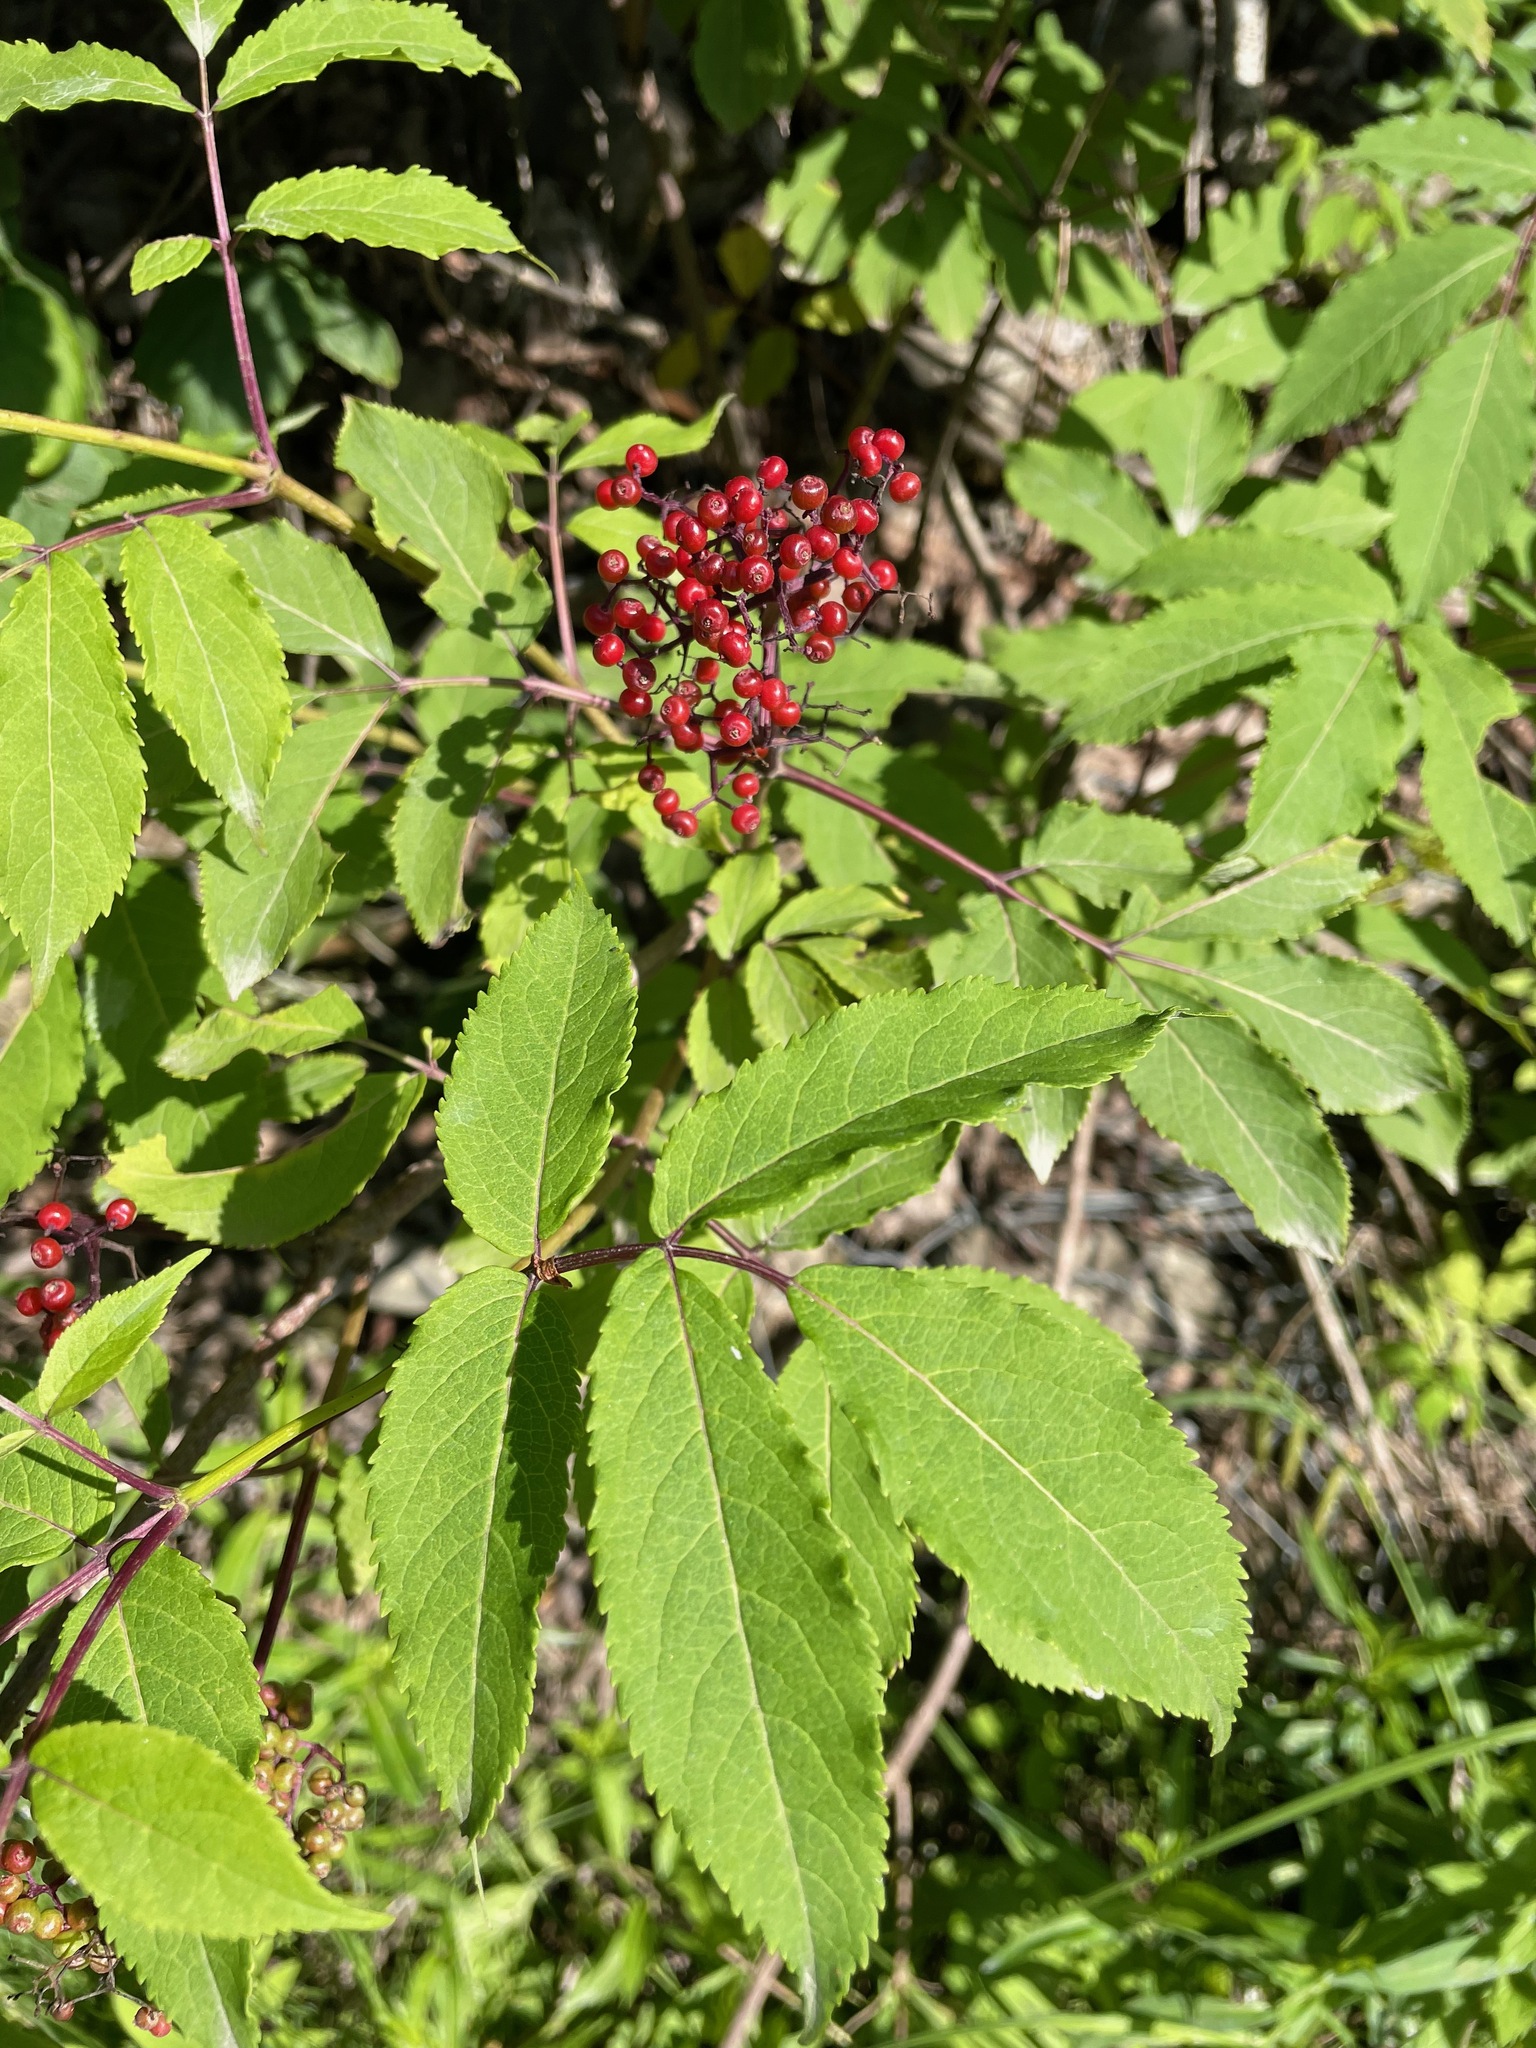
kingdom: Plantae
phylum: Tracheophyta
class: Magnoliopsida
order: Dipsacales
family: Viburnaceae
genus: Sambucus
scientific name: Sambucus racemosa
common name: Red-berried elder
